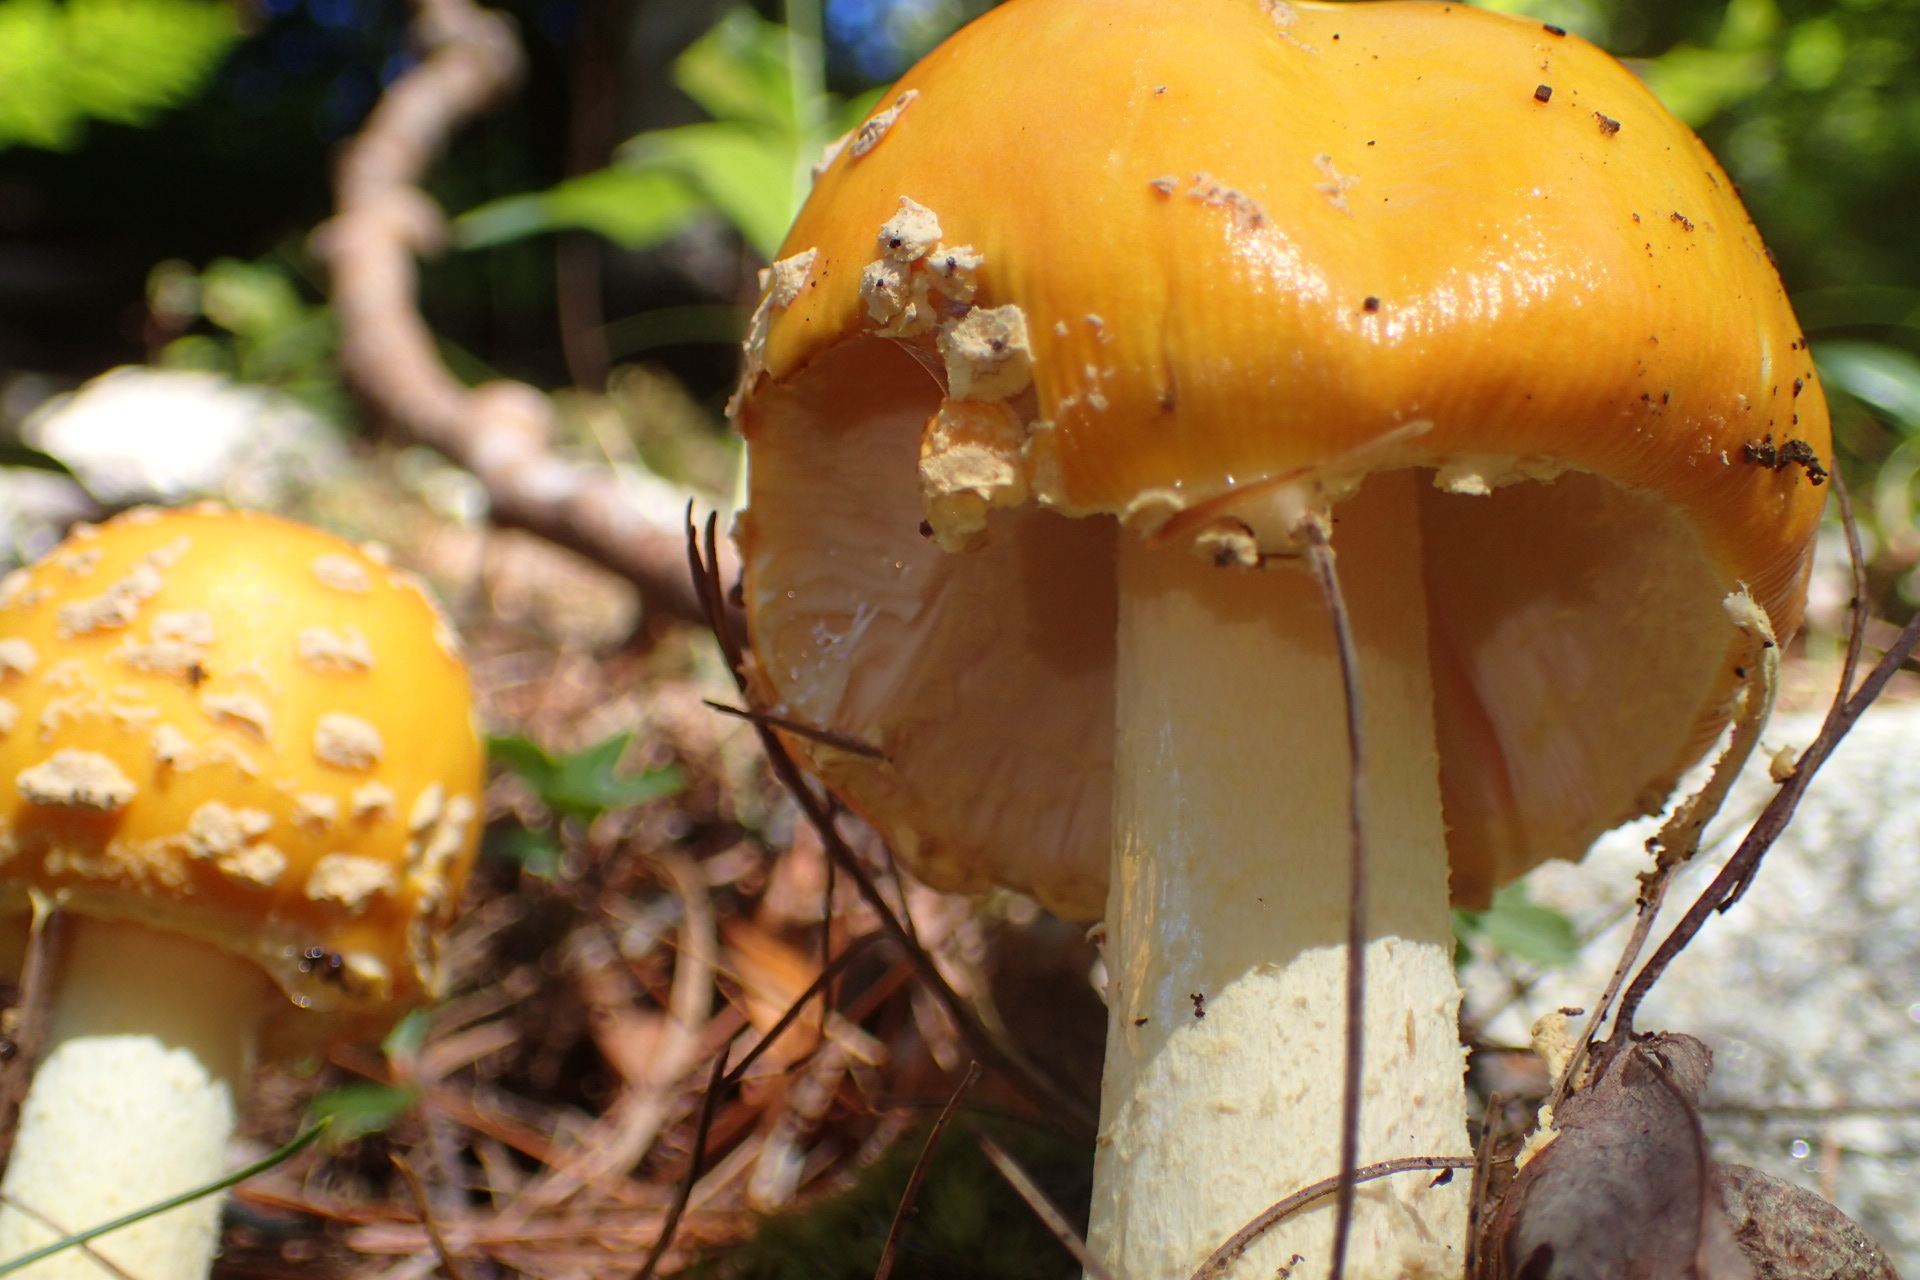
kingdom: Fungi
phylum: Basidiomycota
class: Agaricomycetes
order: Agaricales
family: Amanitaceae
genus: Amanita
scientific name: Amanita muscaria
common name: Fly agaric
